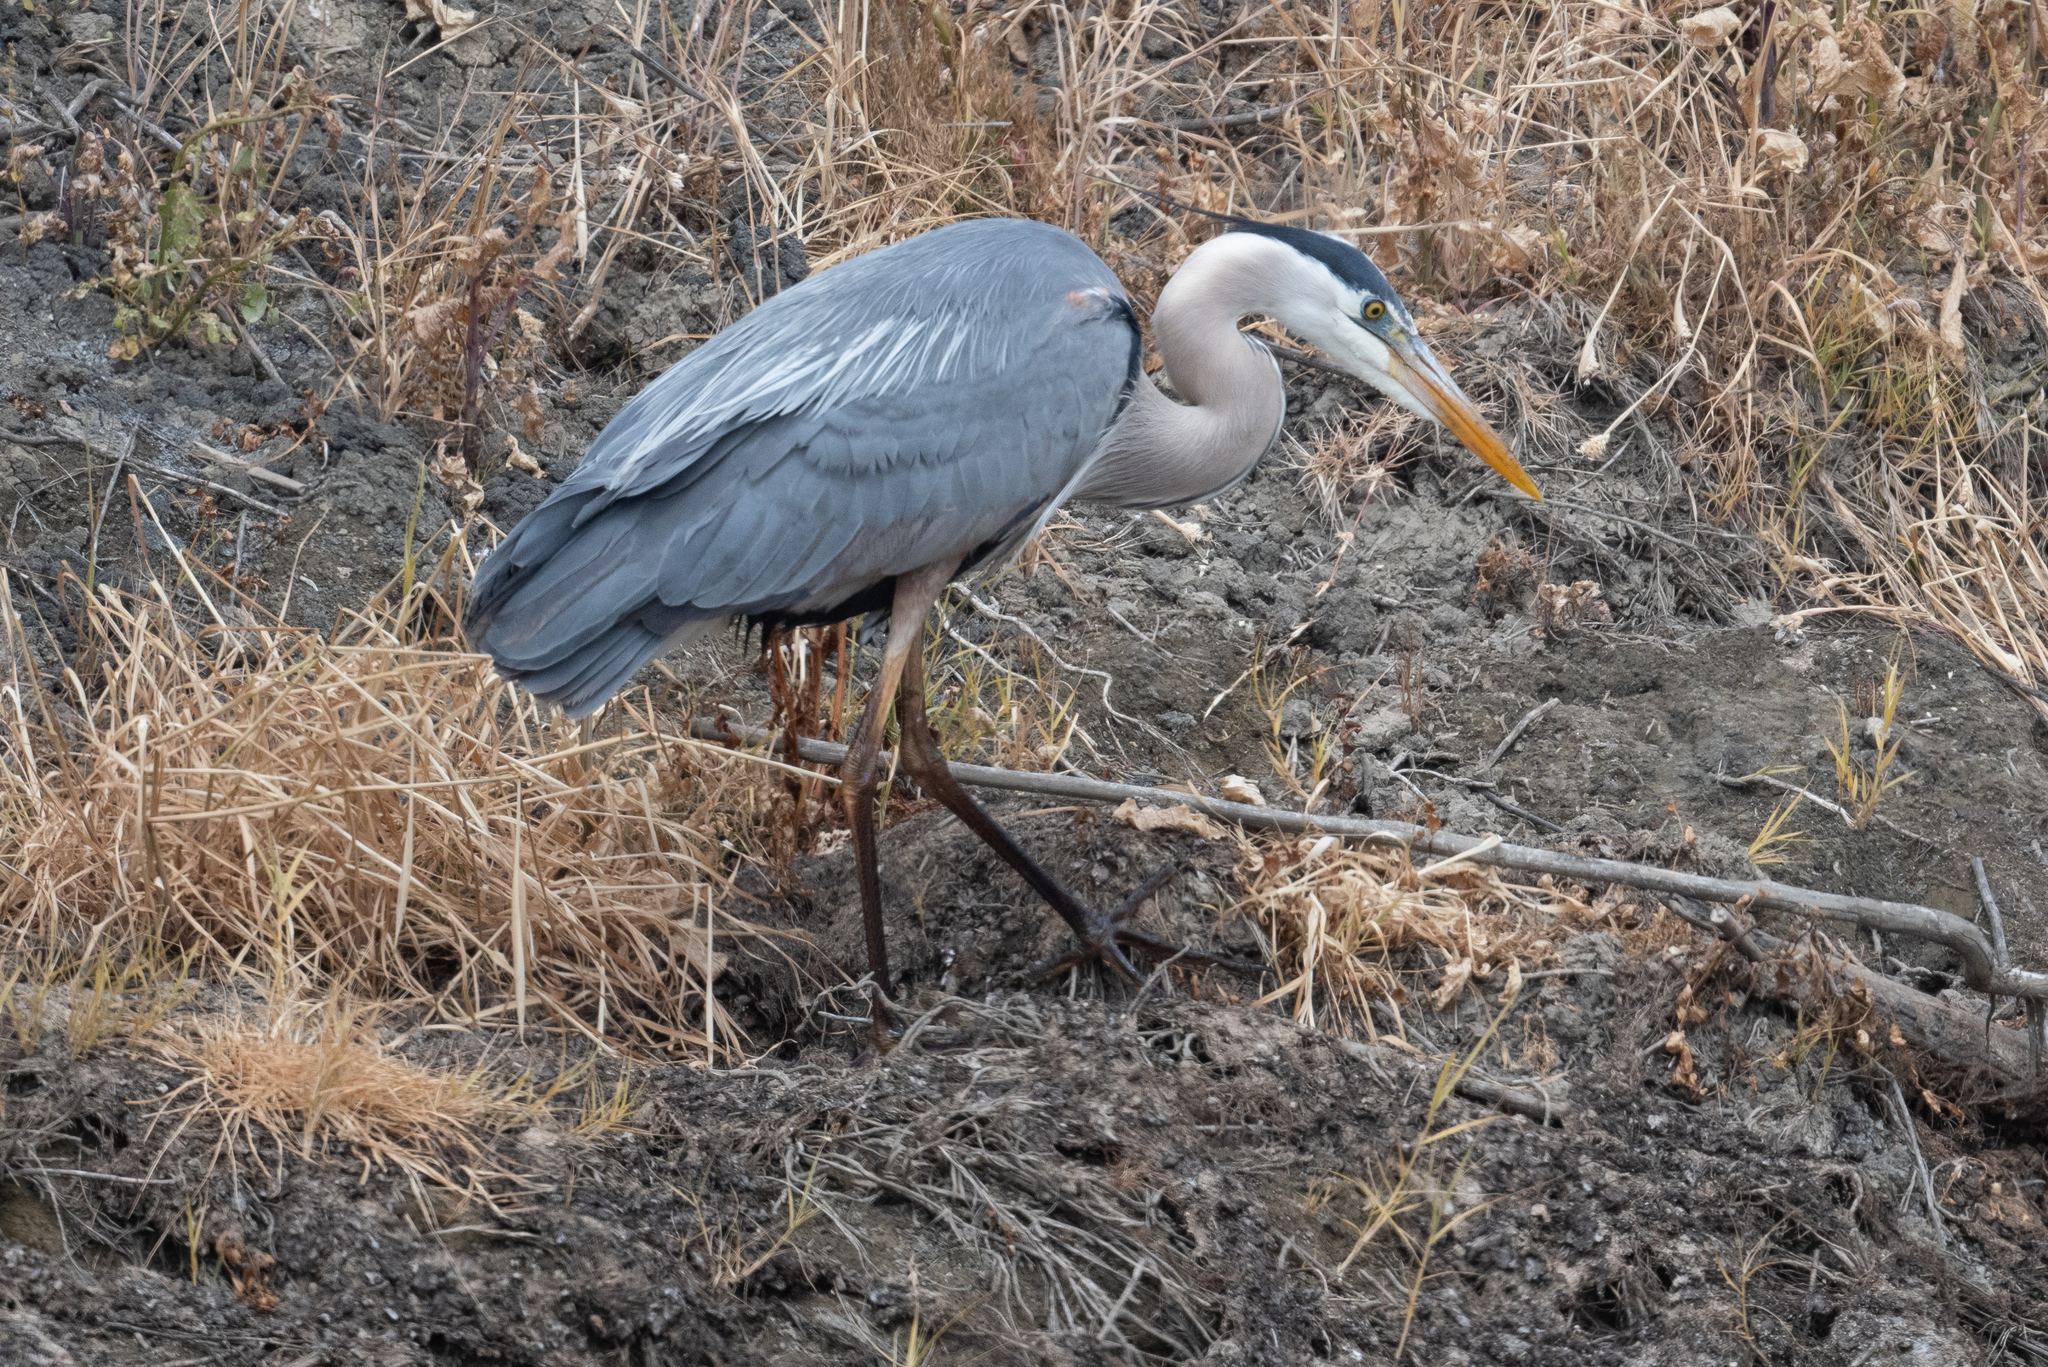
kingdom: Animalia
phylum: Chordata
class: Aves
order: Pelecaniformes
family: Ardeidae
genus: Ardea
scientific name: Ardea herodias
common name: Great blue heron
